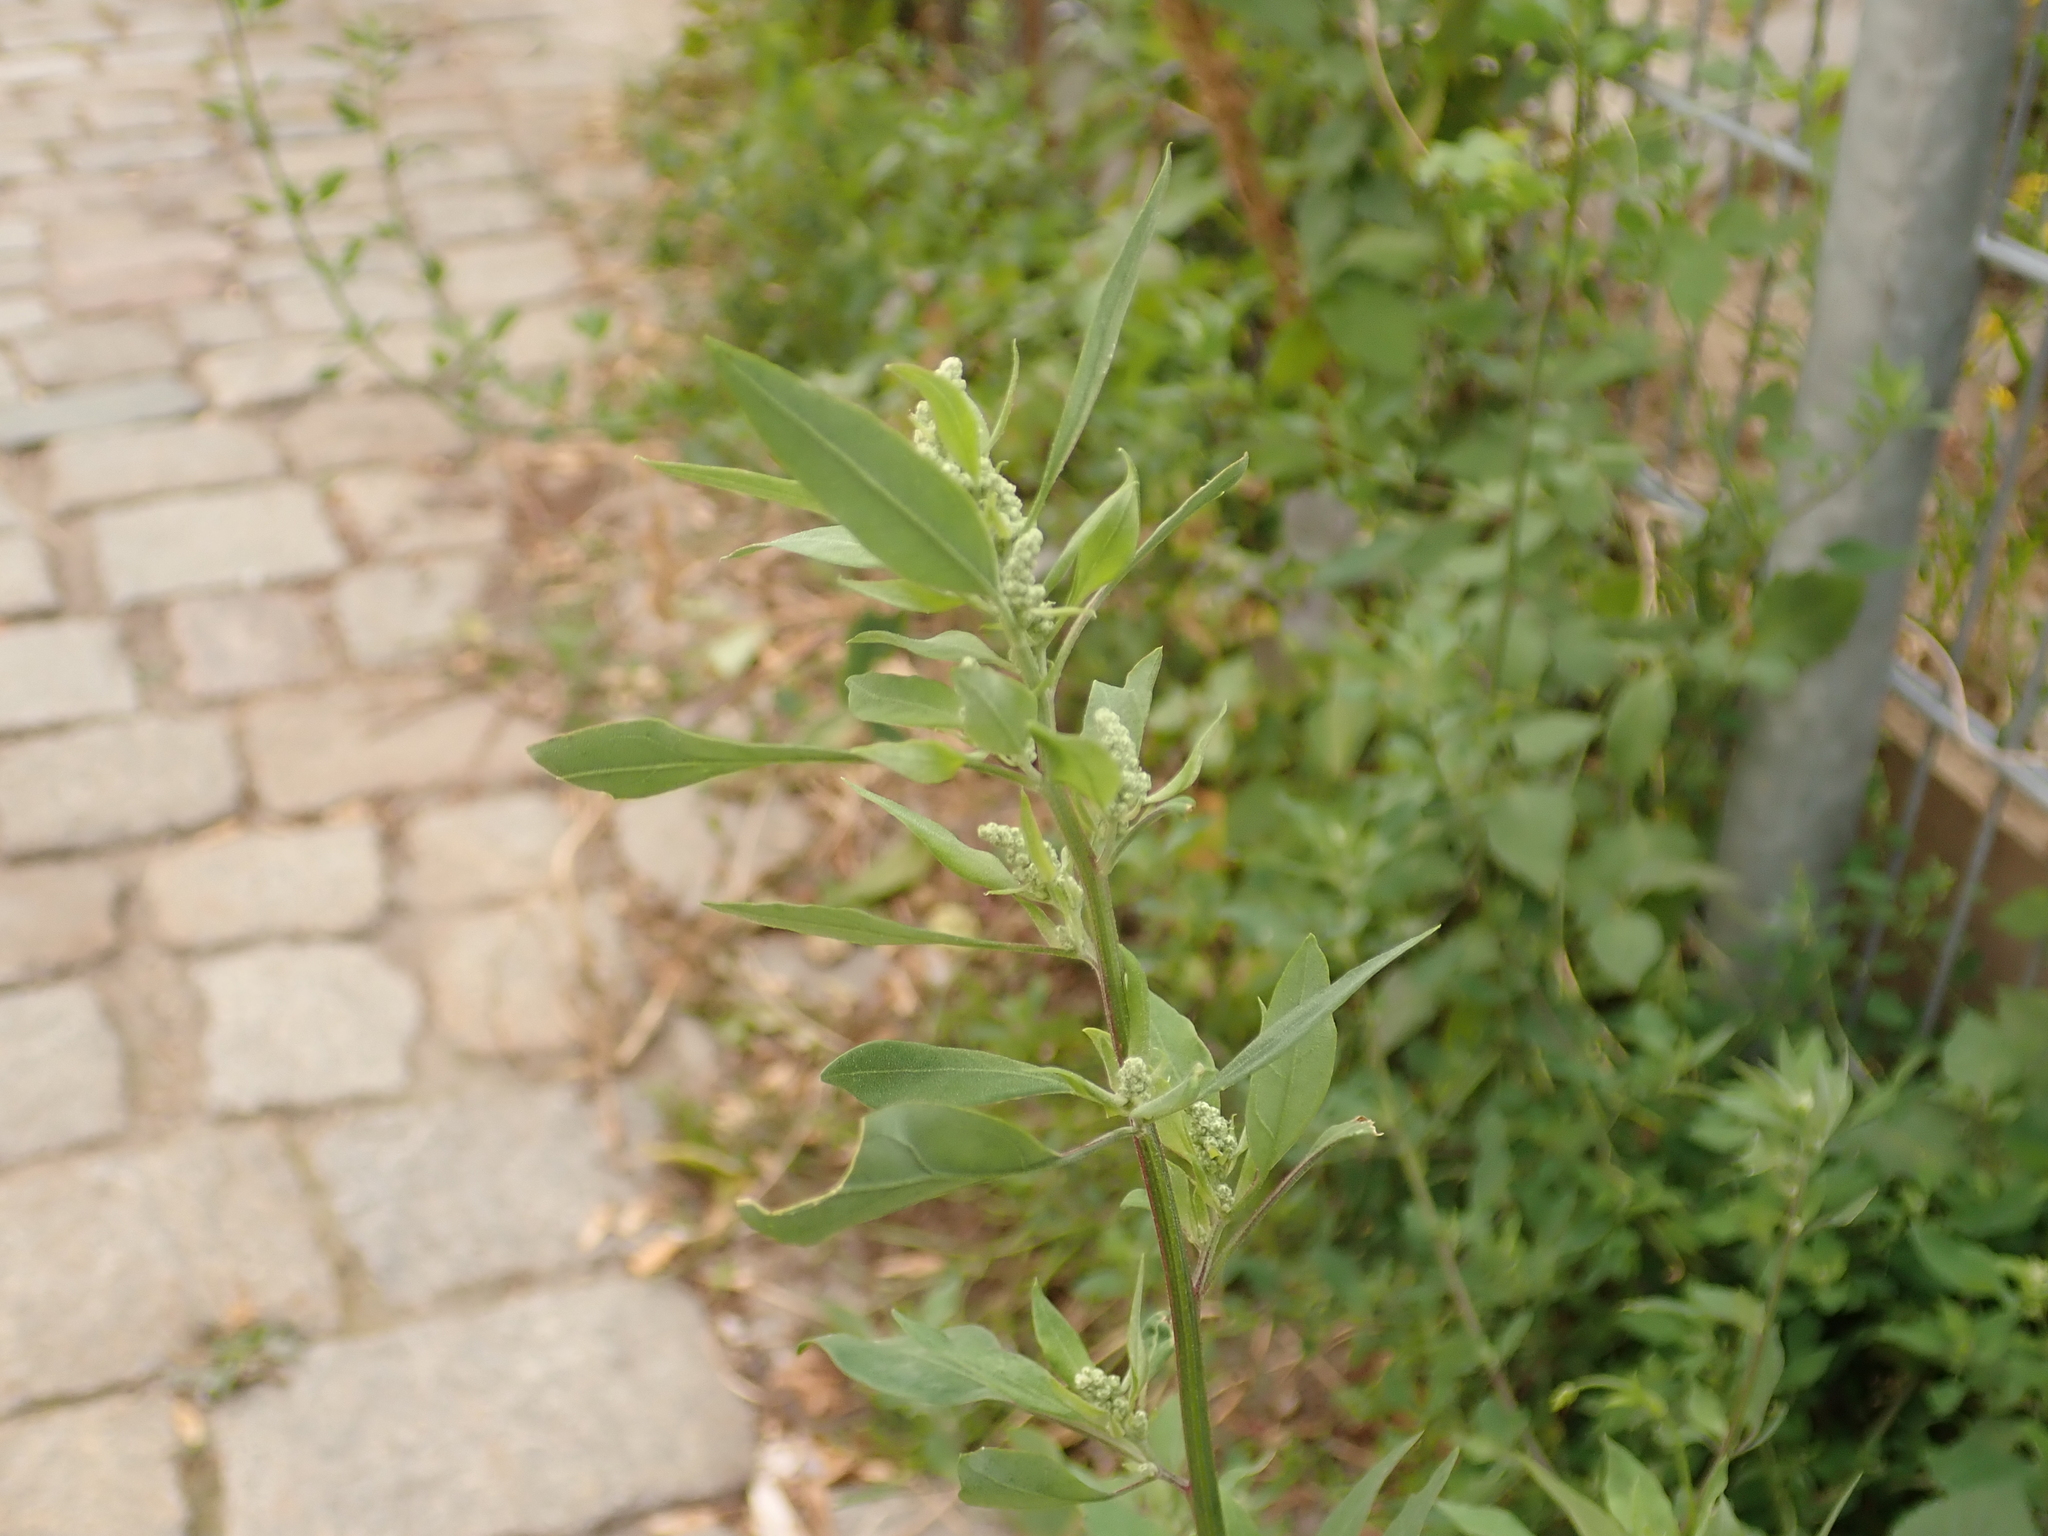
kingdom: Plantae
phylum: Tracheophyta
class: Magnoliopsida
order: Caryophyllales
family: Amaranthaceae
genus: Chenopodium
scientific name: Chenopodium album
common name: Fat-hen
